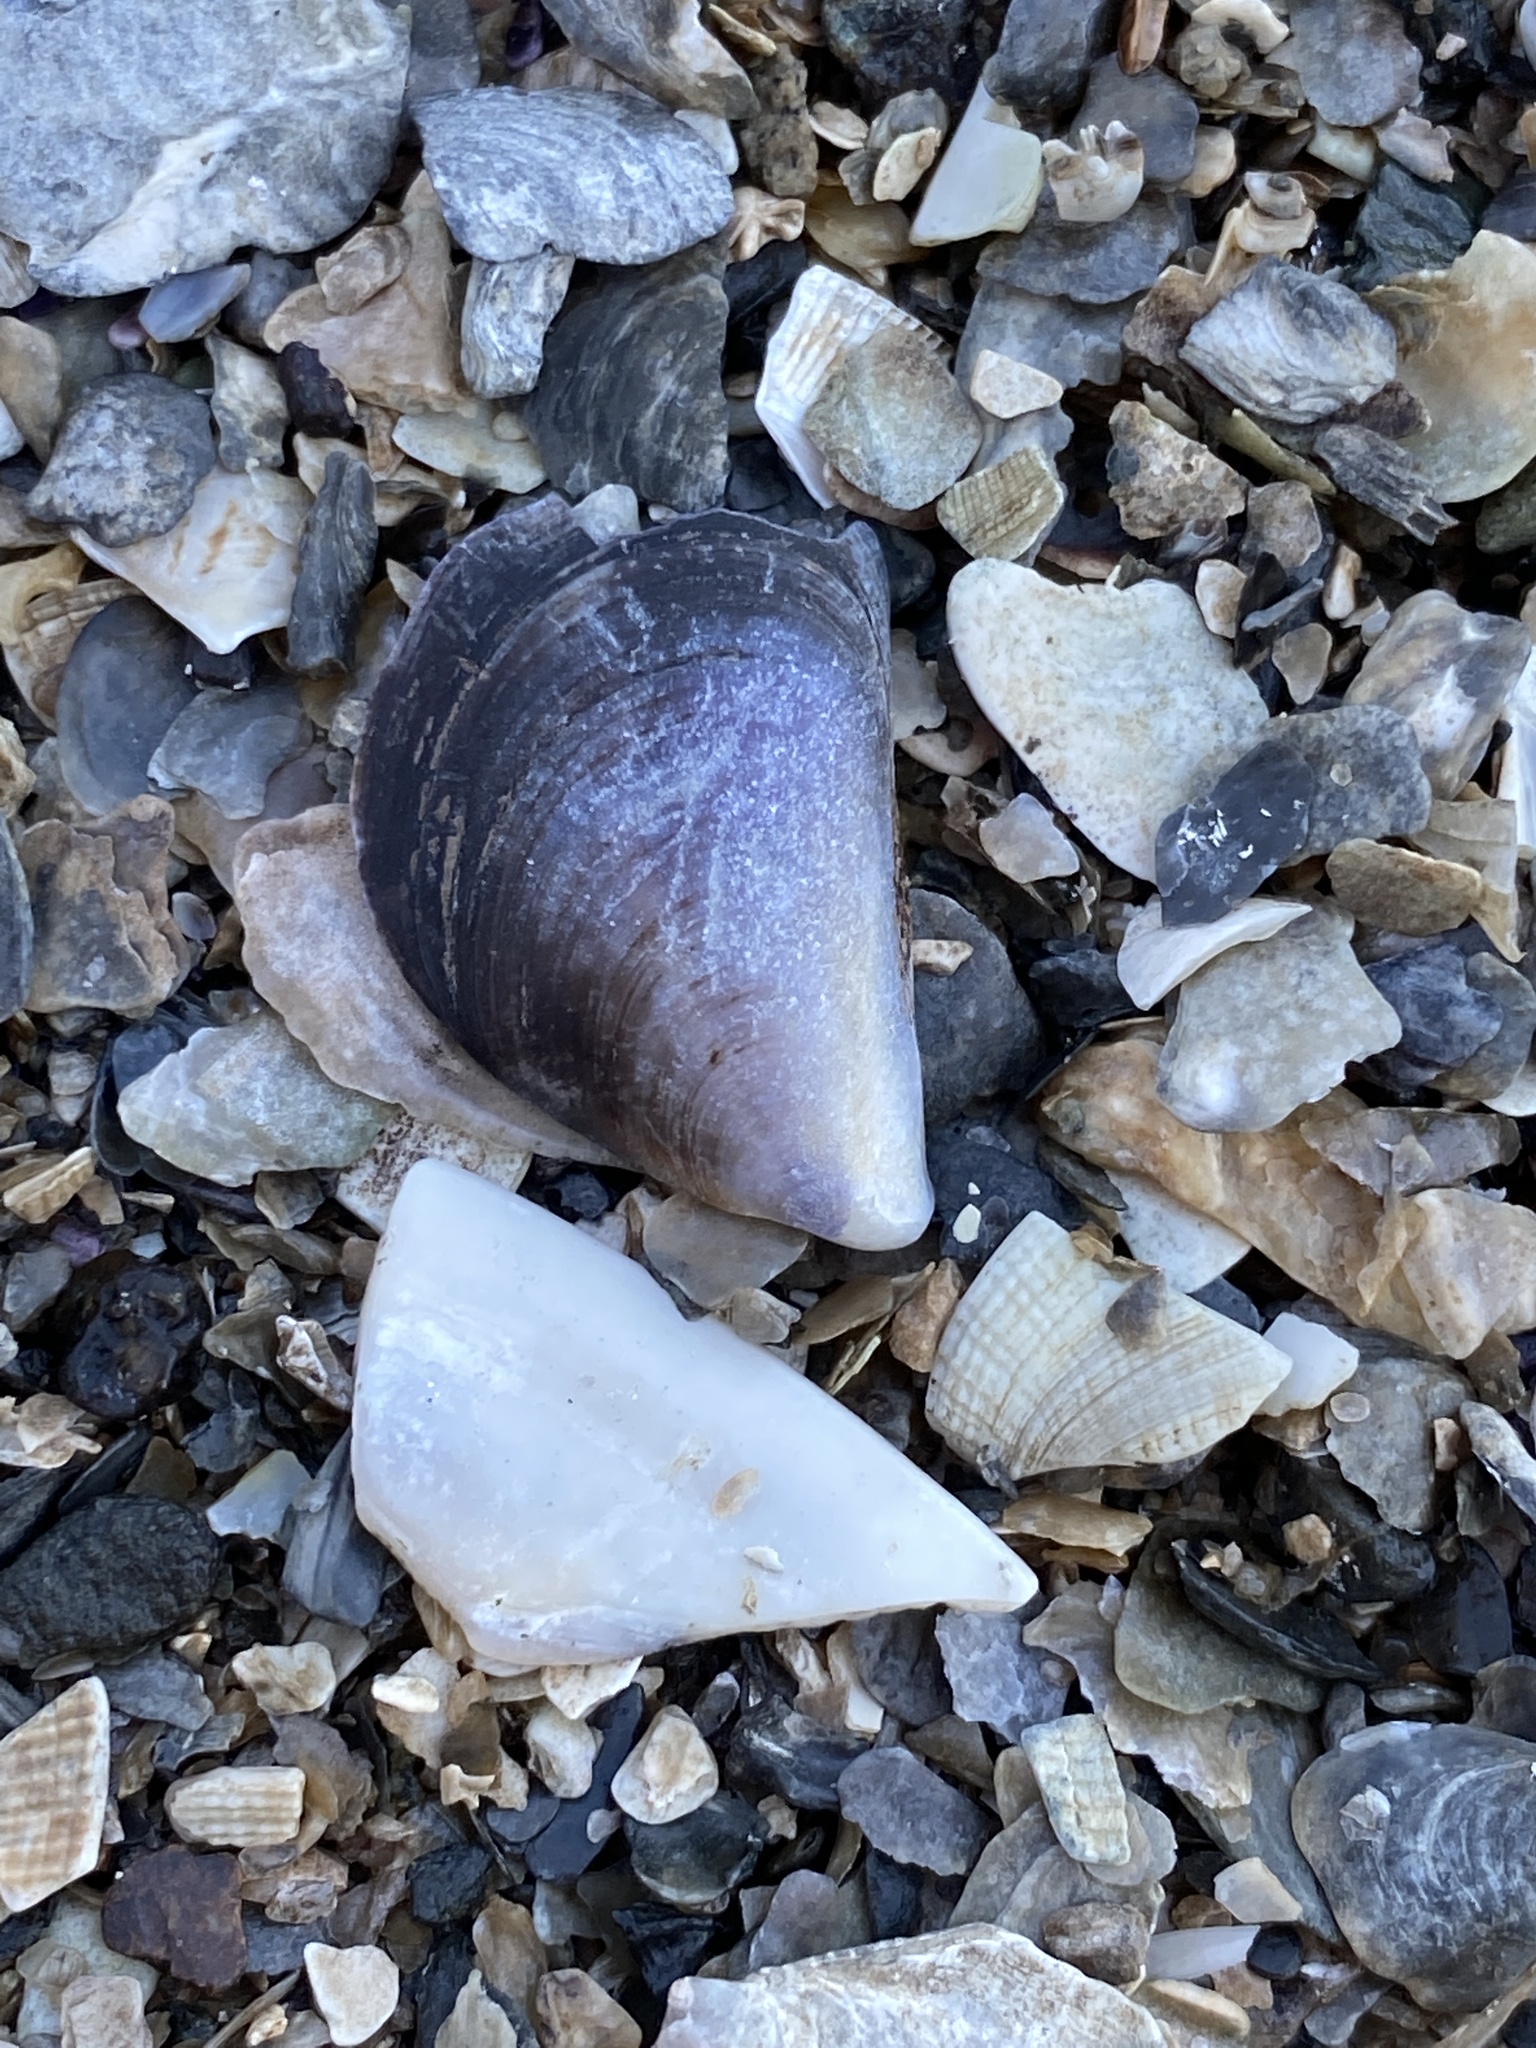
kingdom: Animalia
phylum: Mollusca
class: Bivalvia
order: Mytilida
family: Mytilidae
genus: Mytilus
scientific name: Mytilus
